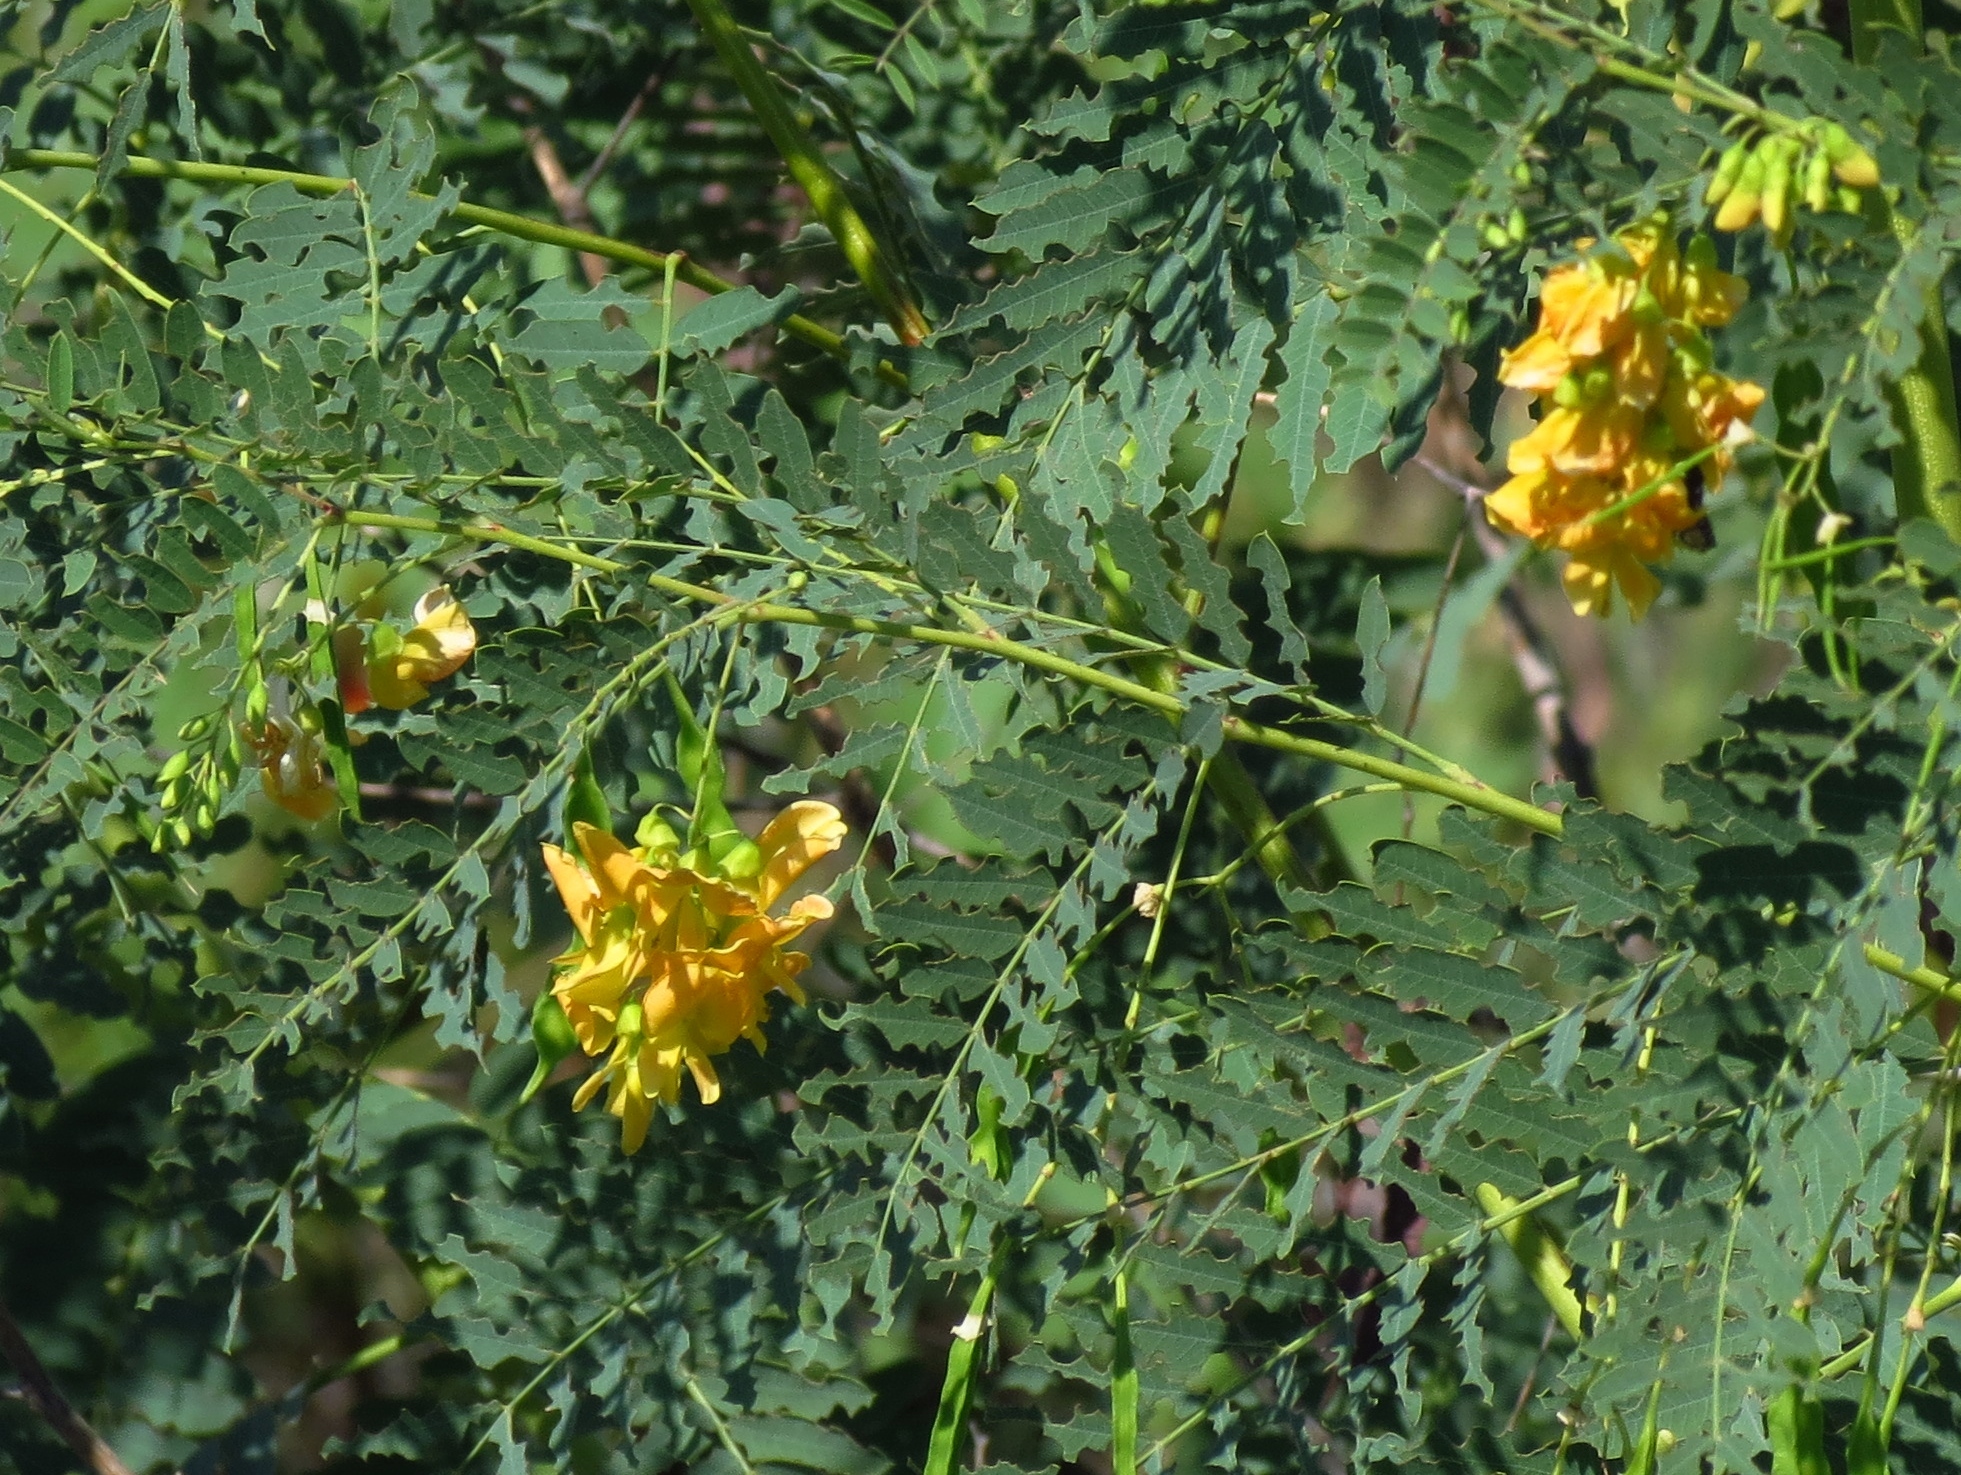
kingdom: Plantae
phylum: Tracheophyta
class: Magnoliopsida
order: Fabales
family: Fabaceae
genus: Sesbania
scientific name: Sesbania drummondii
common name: Poison-bean
